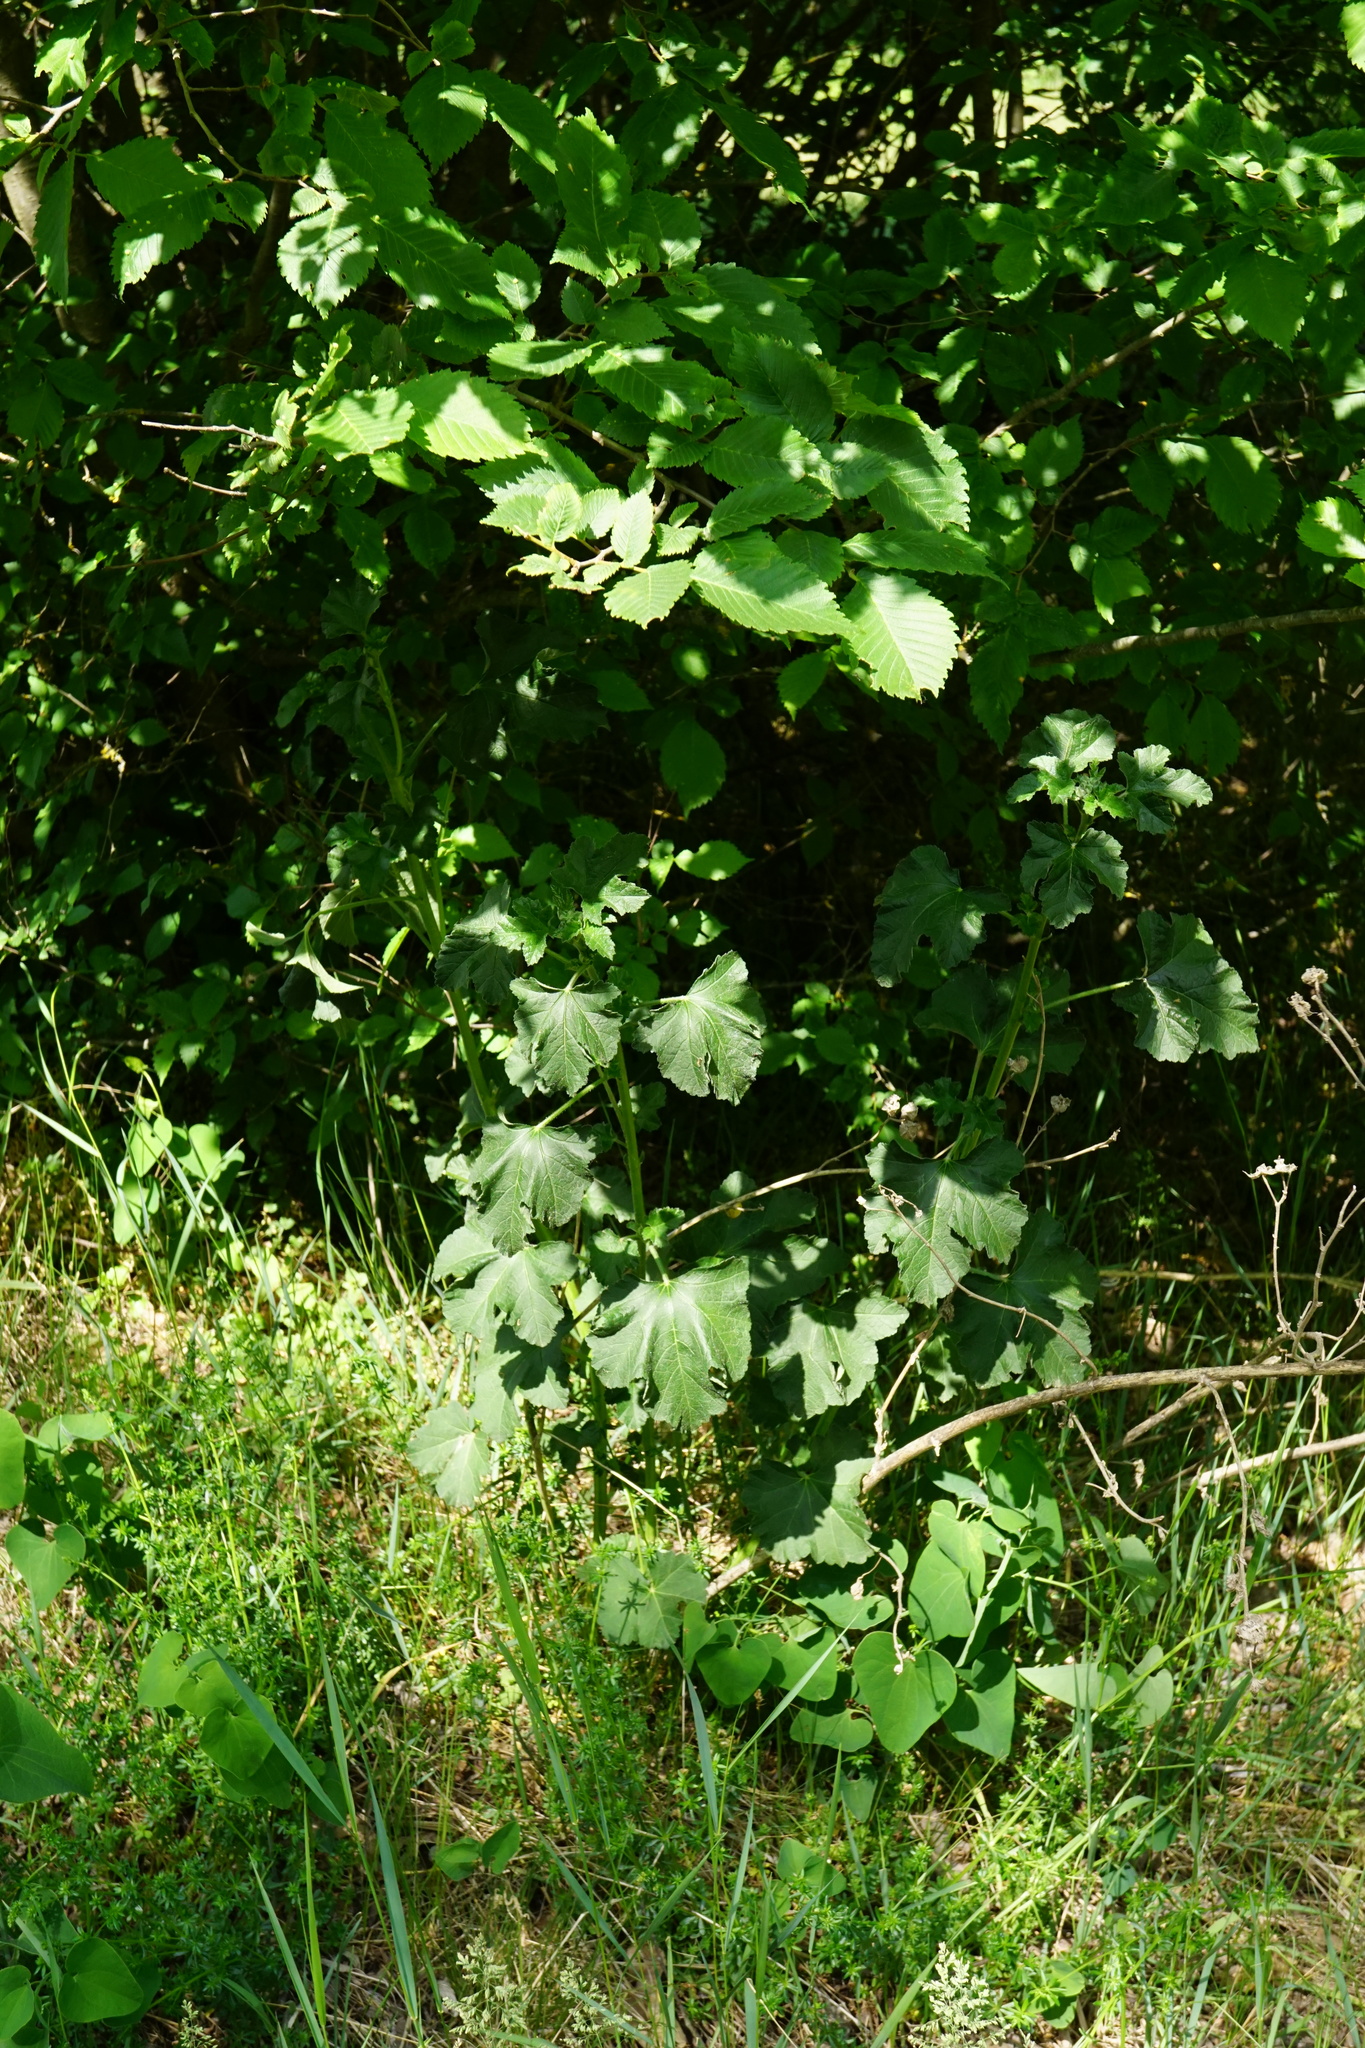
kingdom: Plantae
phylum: Tracheophyta
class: Magnoliopsida
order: Malvales
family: Malvaceae
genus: Malva
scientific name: Malva thuringiaca
